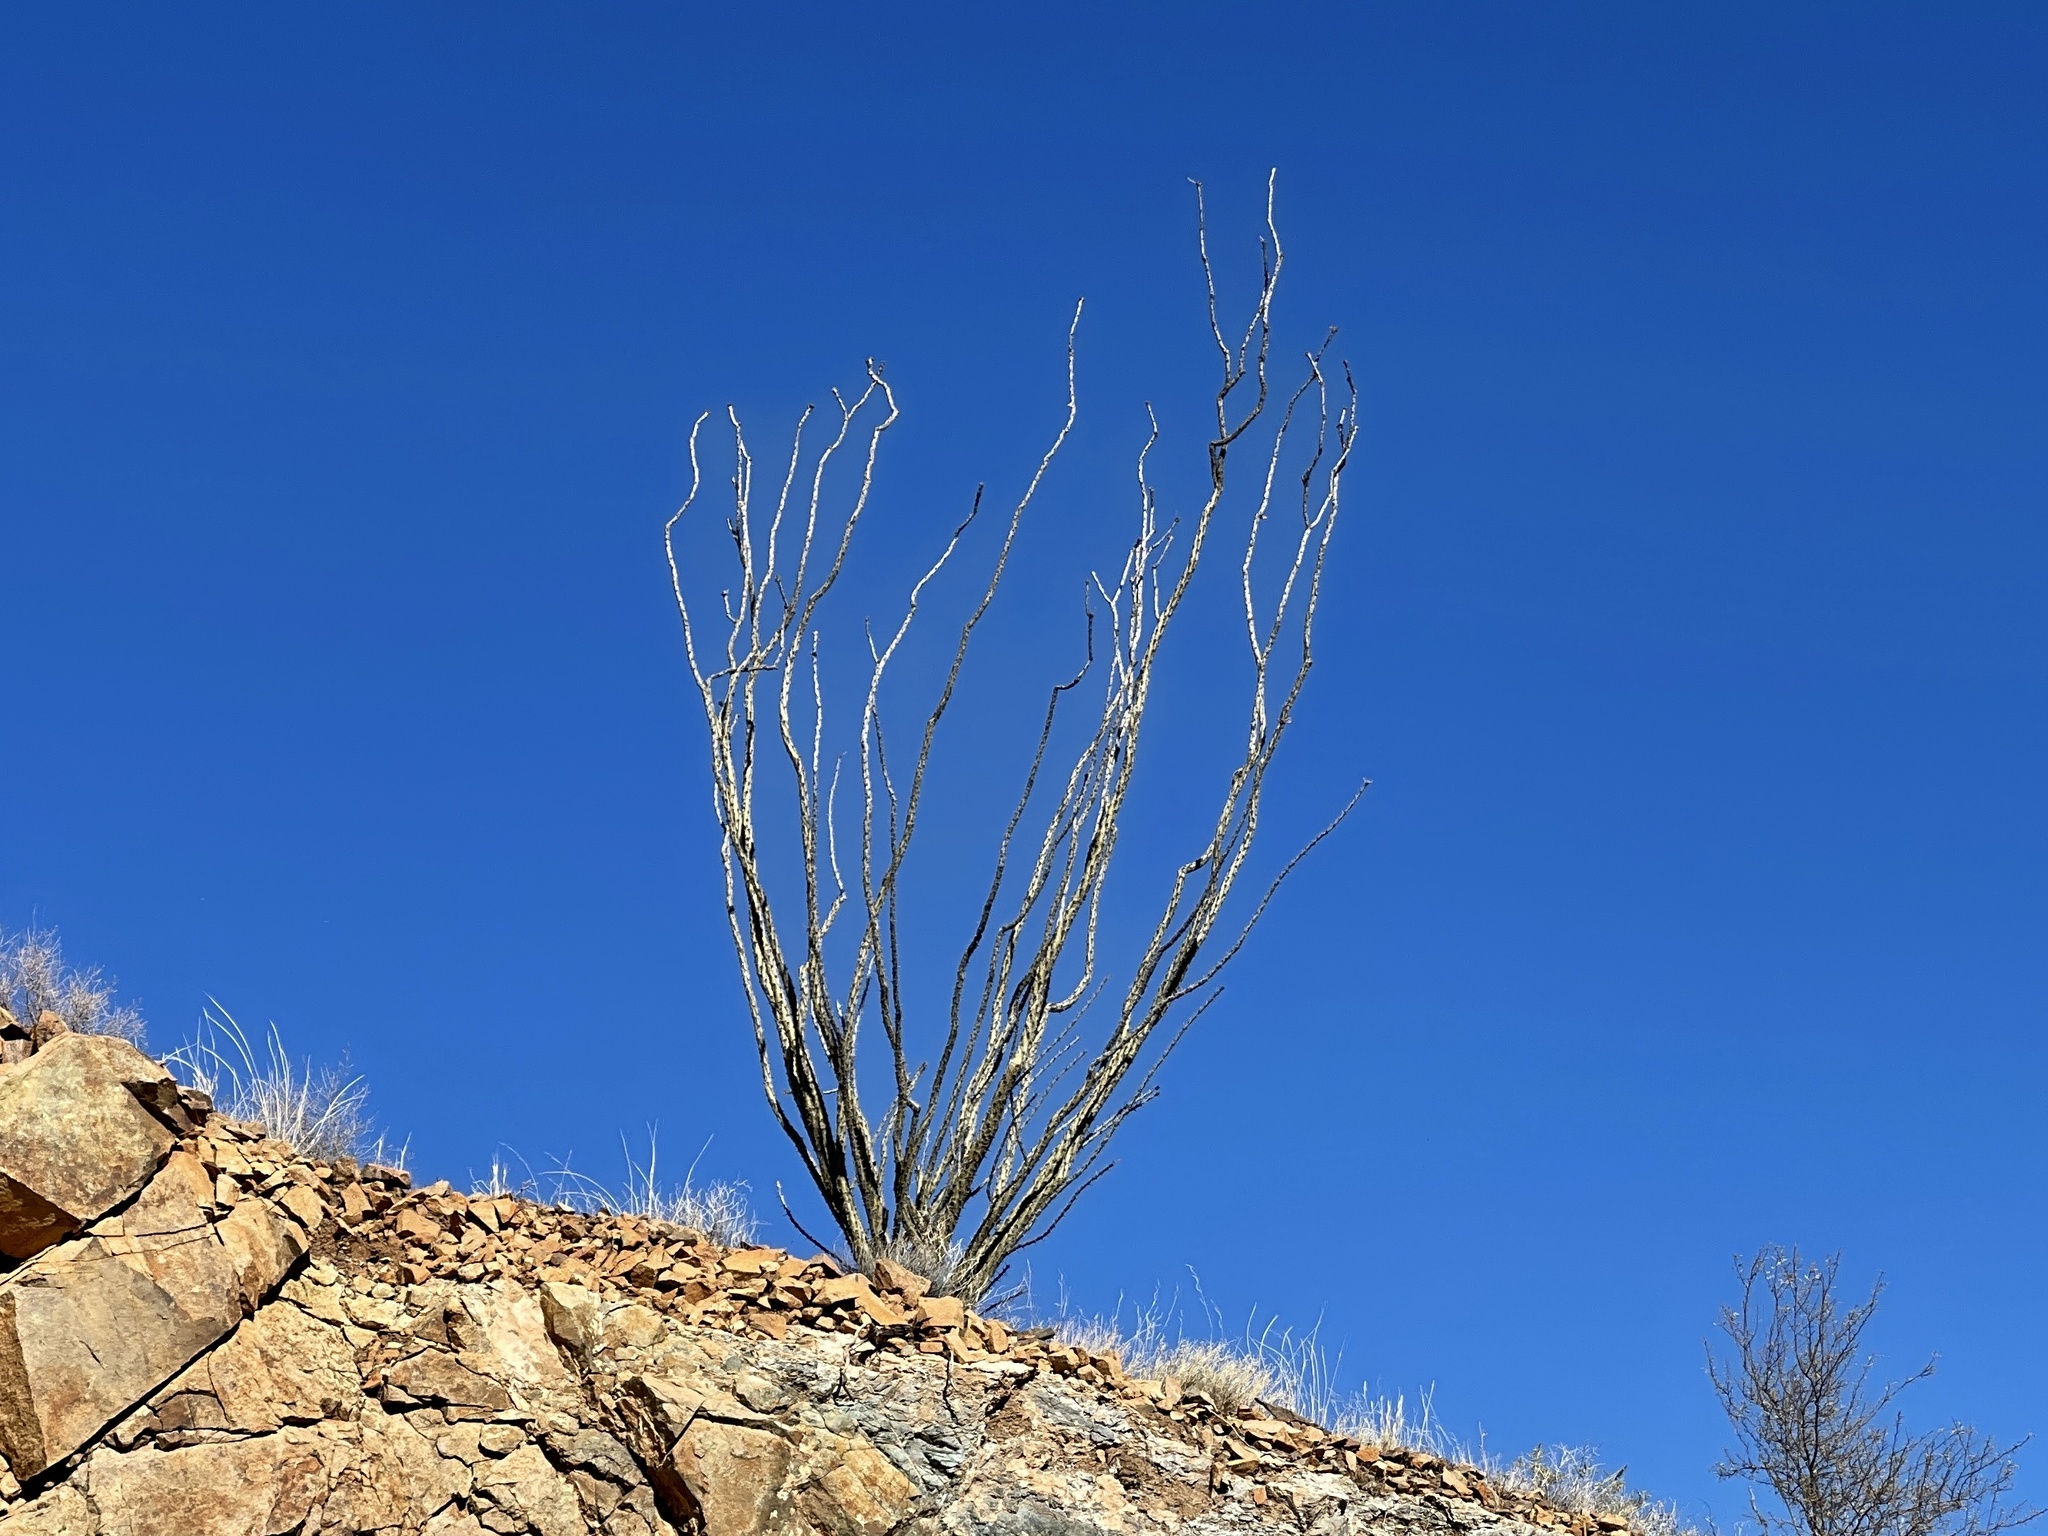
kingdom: Plantae
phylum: Tracheophyta
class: Magnoliopsida
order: Ericales
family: Fouquieriaceae
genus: Fouquieria
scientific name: Fouquieria splendens
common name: Vine-cactus
